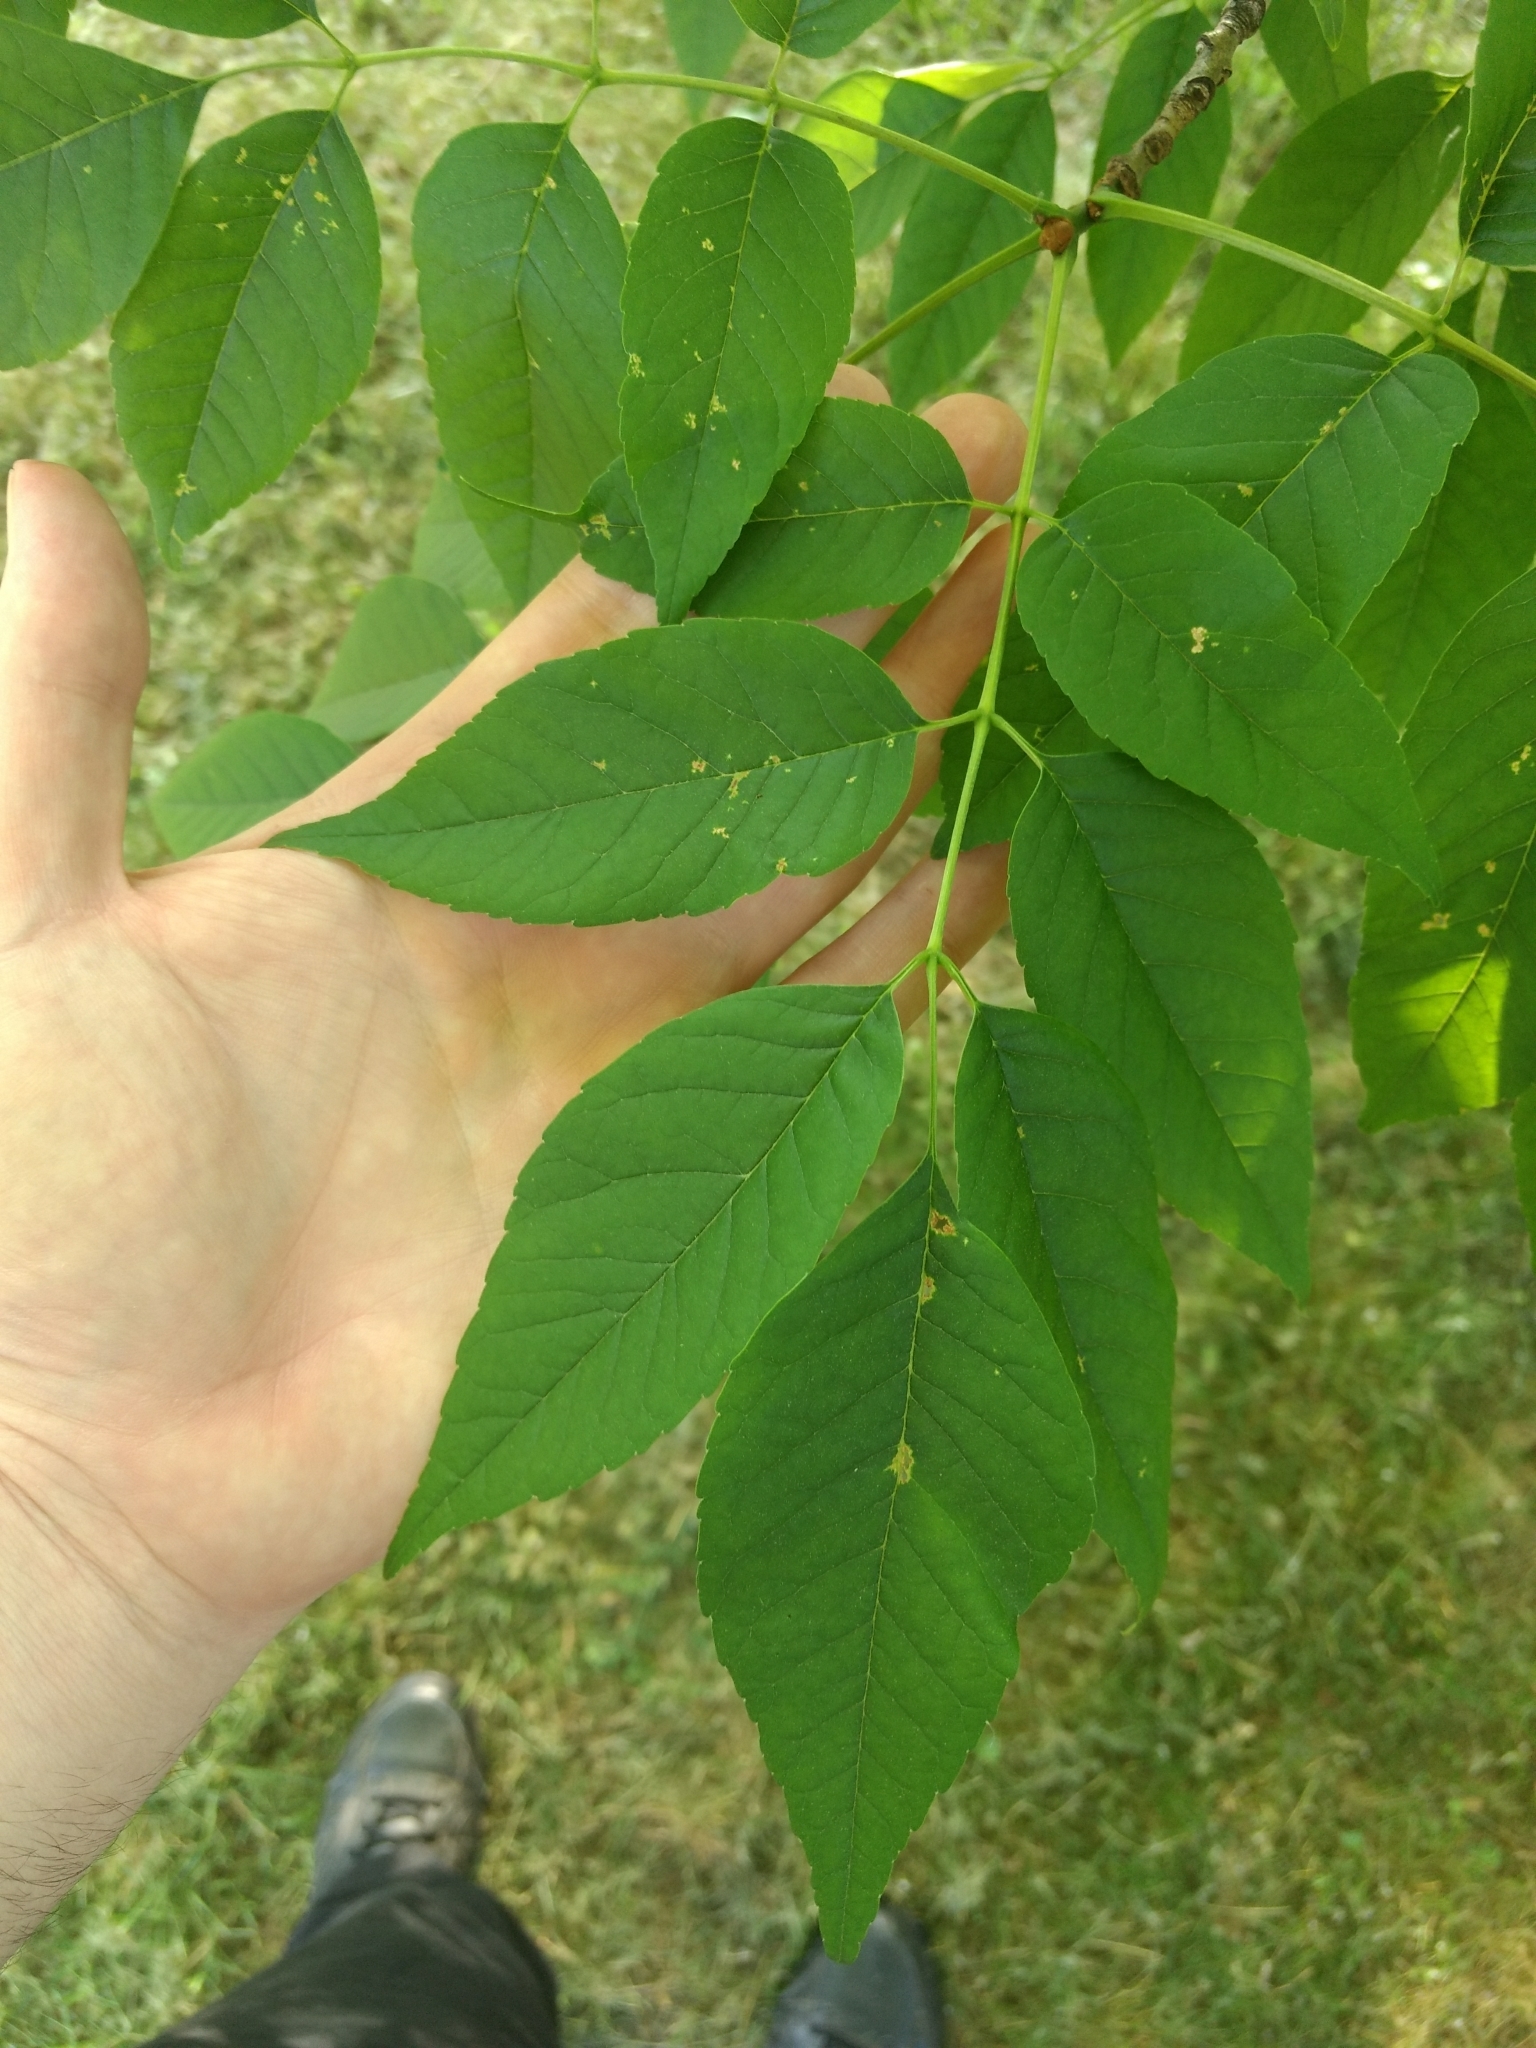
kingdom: Plantae
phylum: Tracheophyta
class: Magnoliopsida
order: Lamiales
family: Oleaceae
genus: Fraxinus
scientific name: Fraxinus americana
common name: White ash
